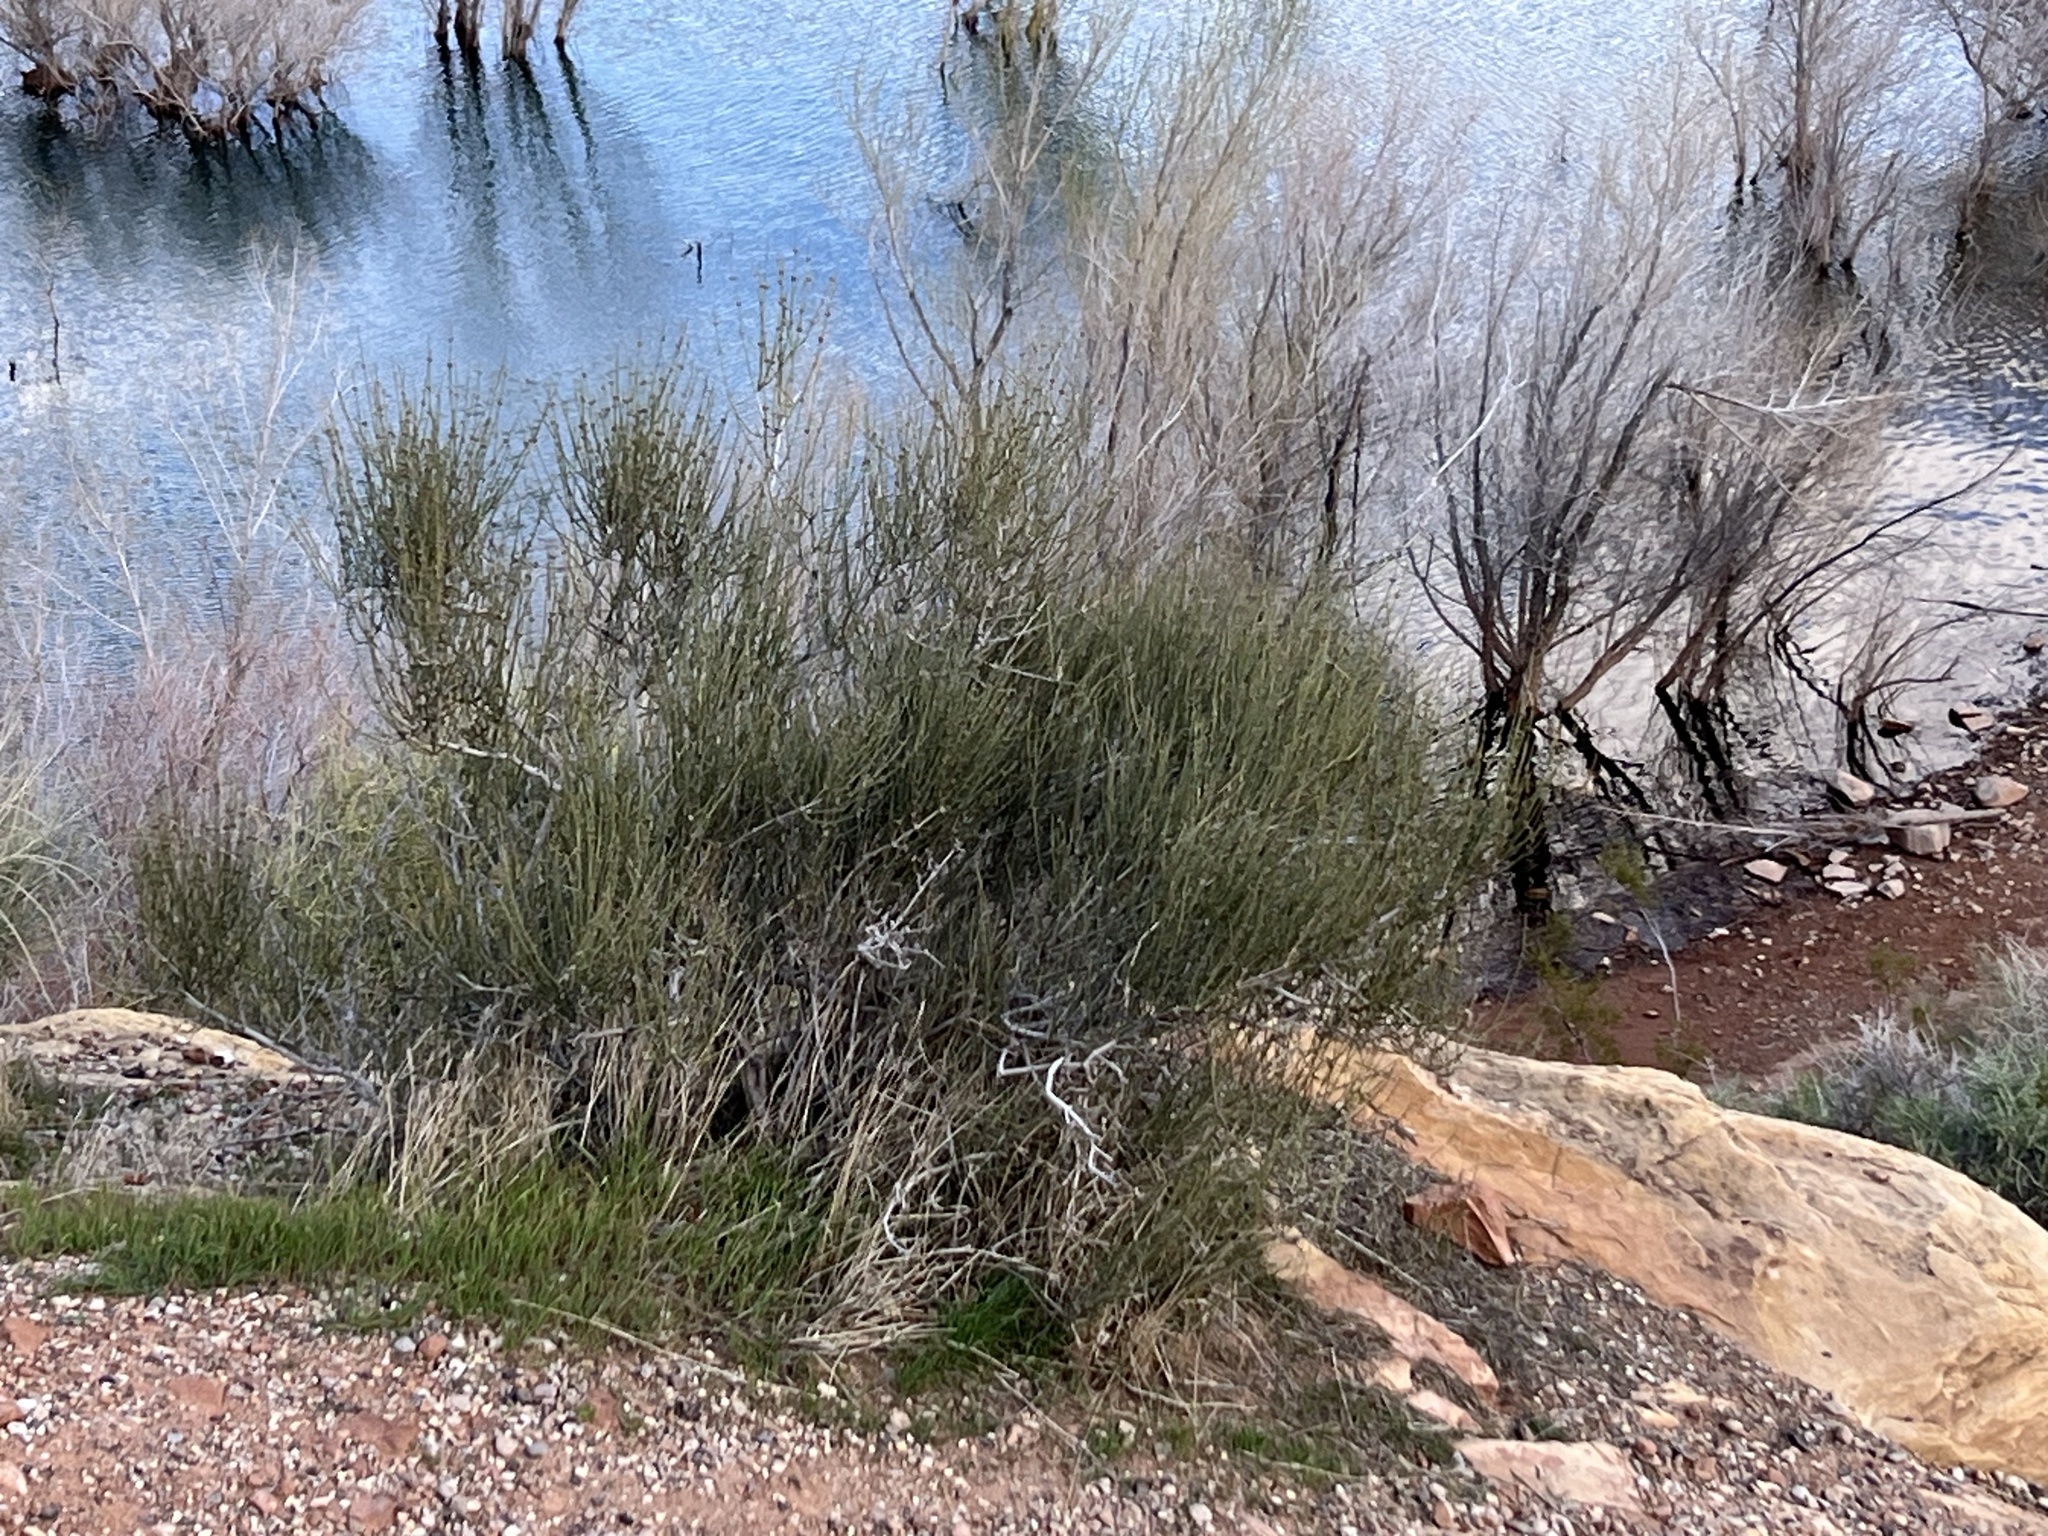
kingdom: Plantae
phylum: Tracheophyta
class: Gnetopsida
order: Ephedrales
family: Ephedraceae
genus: Ephedra
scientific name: Ephedra viridis
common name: Green ephedra
